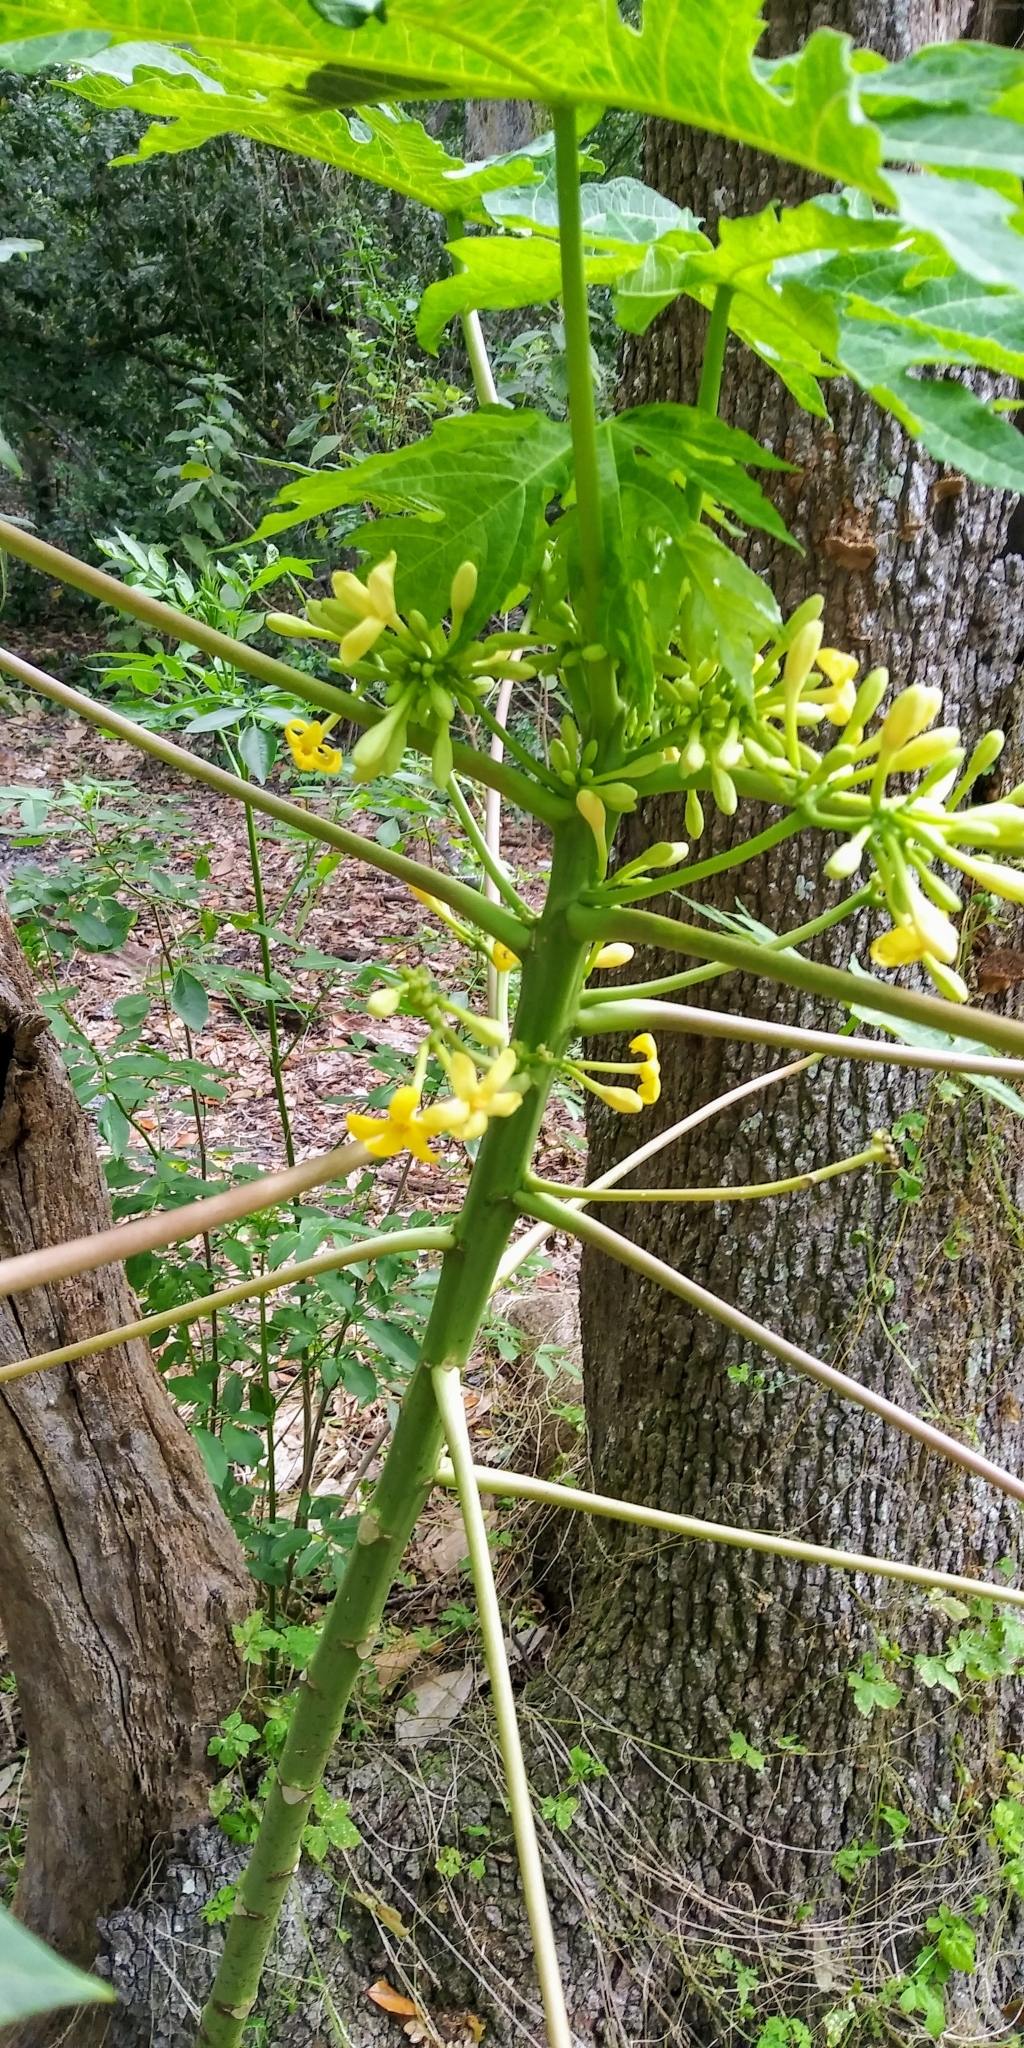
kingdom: Plantae
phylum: Tracheophyta
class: Magnoliopsida
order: Brassicales
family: Caricaceae
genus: Carica
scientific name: Carica papaya
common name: Papaya
